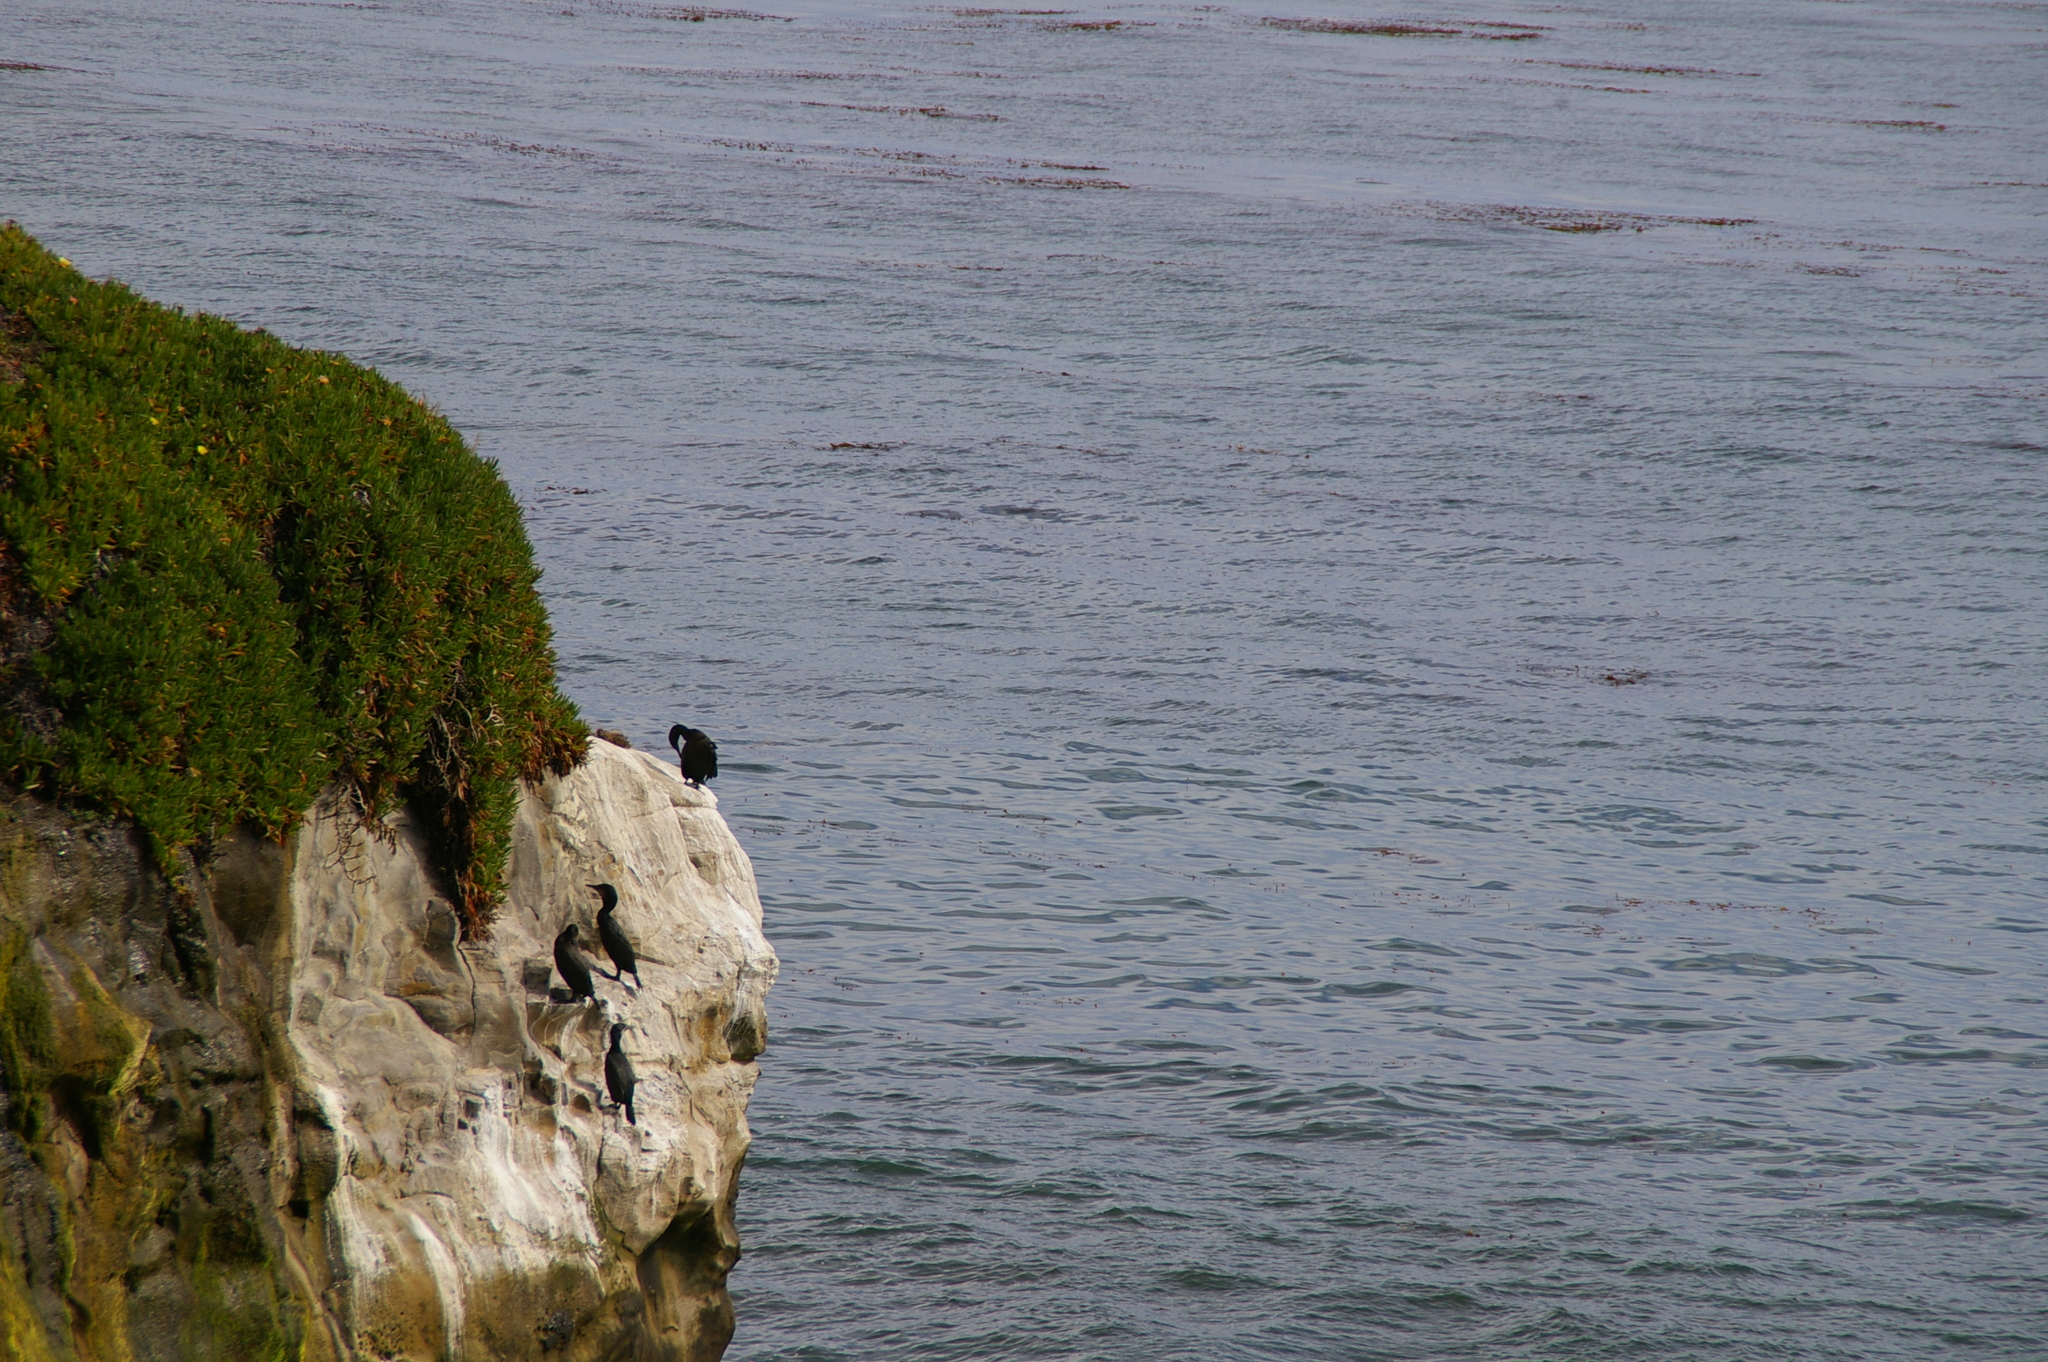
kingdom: Animalia
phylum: Chordata
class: Aves
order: Suliformes
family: Phalacrocoracidae
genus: Urile
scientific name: Urile penicillatus
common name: Brandt's cormorant
